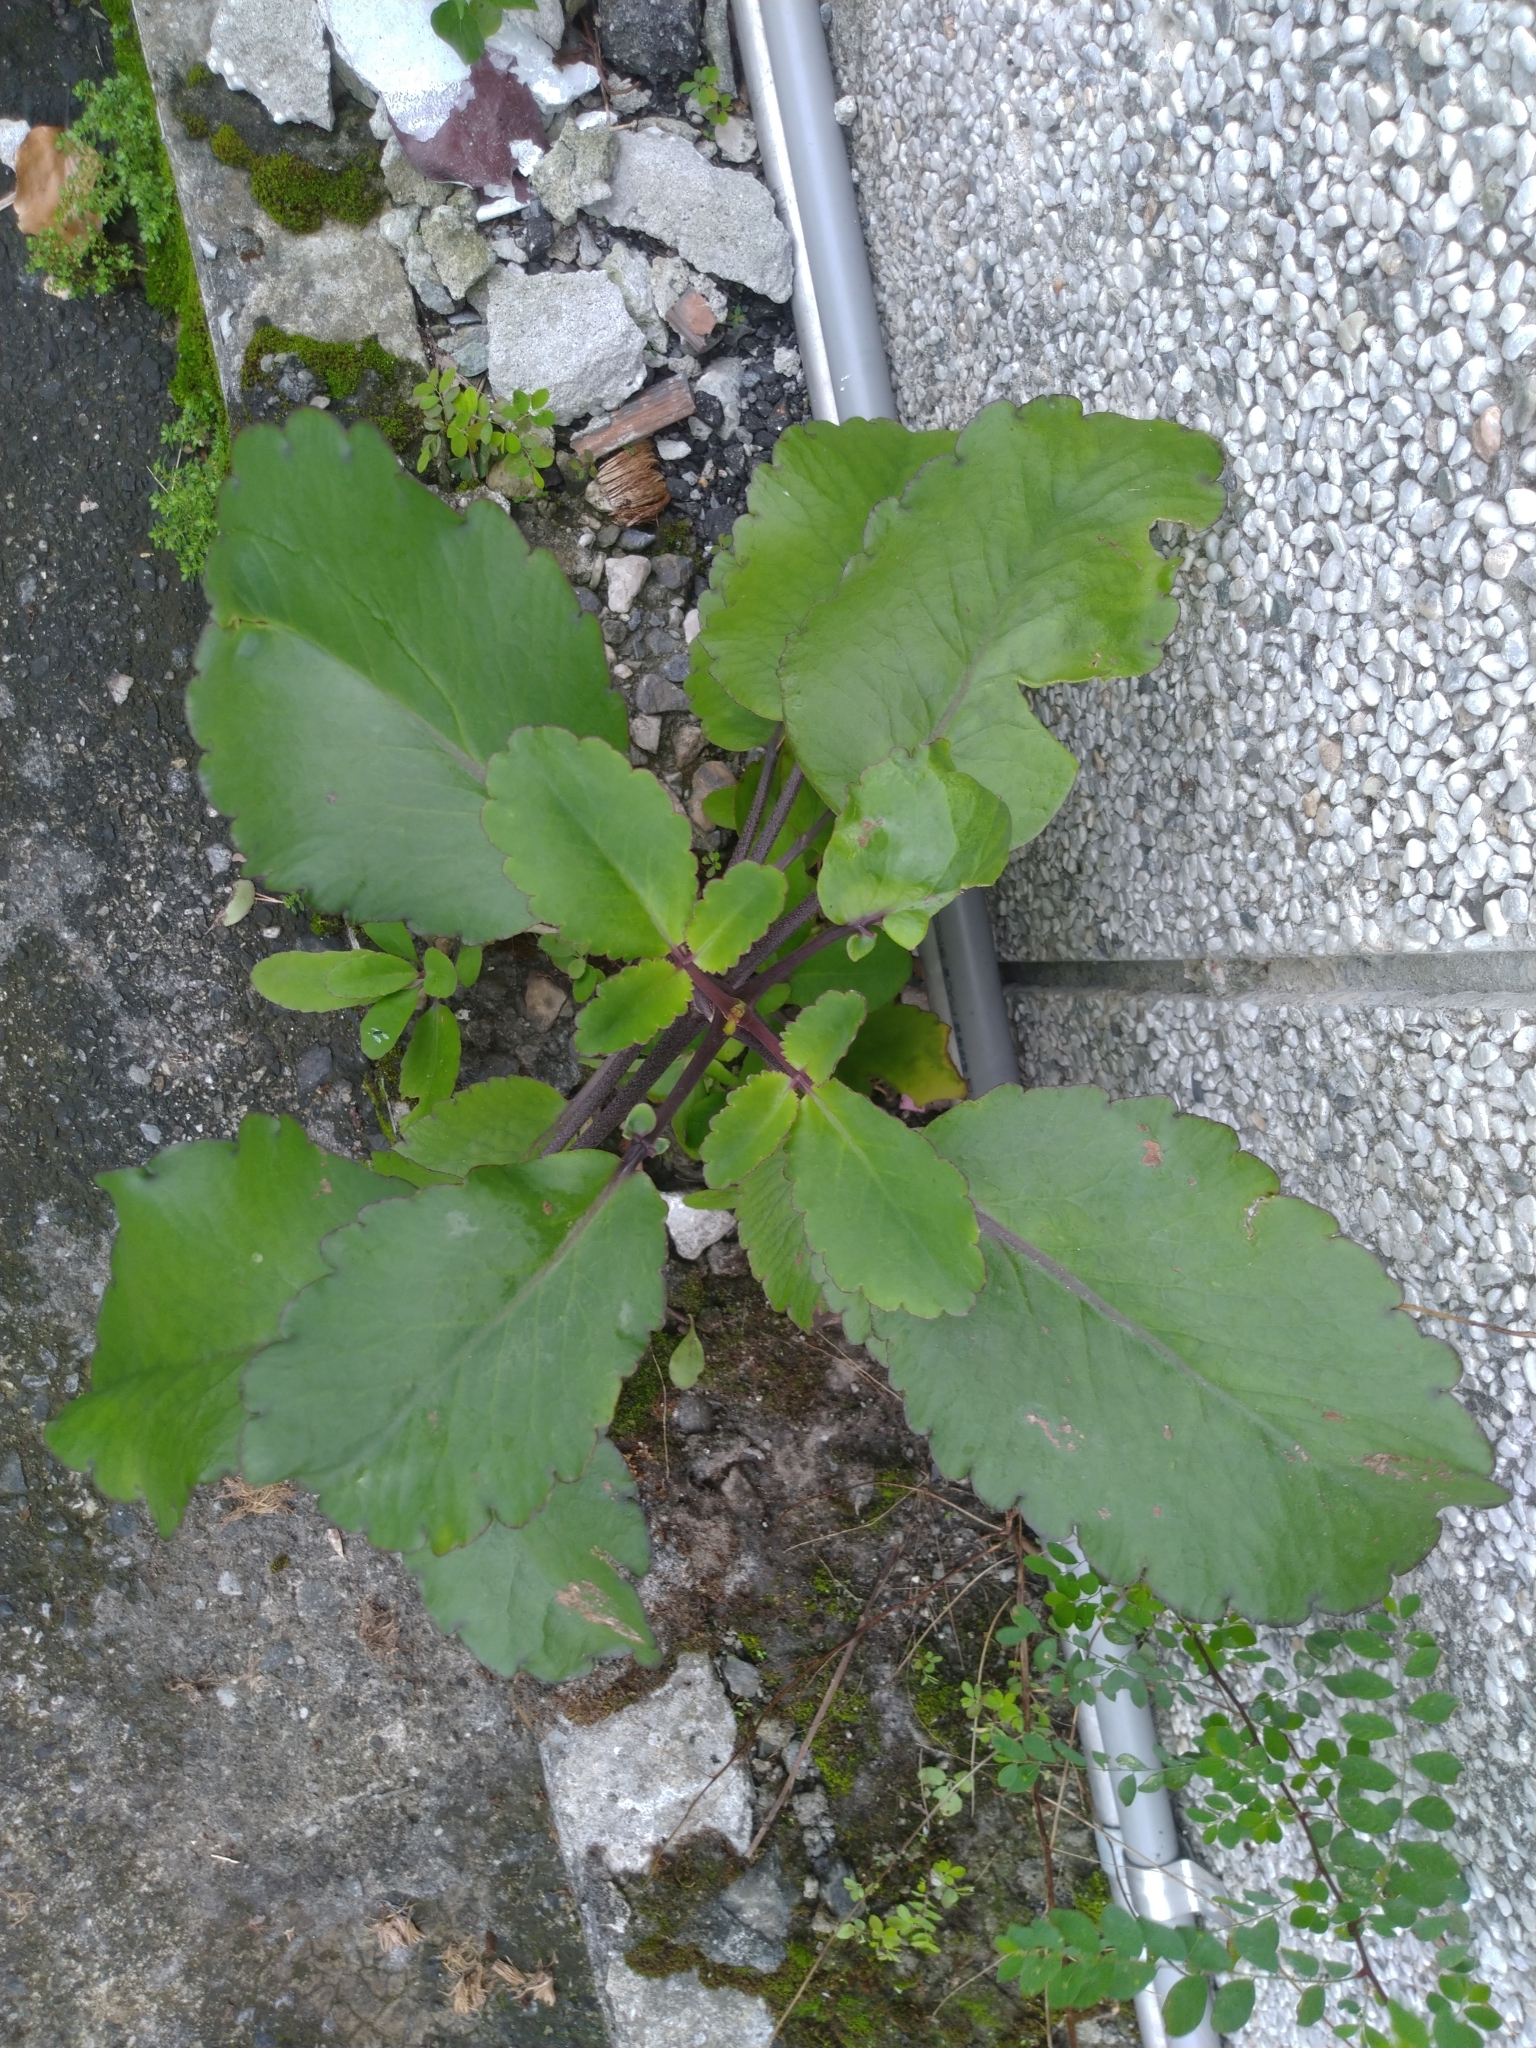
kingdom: Plantae
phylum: Tracheophyta
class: Magnoliopsida
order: Saxifragales
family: Crassulaceae
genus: Kalanchoe
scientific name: Kalanchoe pinnata
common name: Cathedral bells
